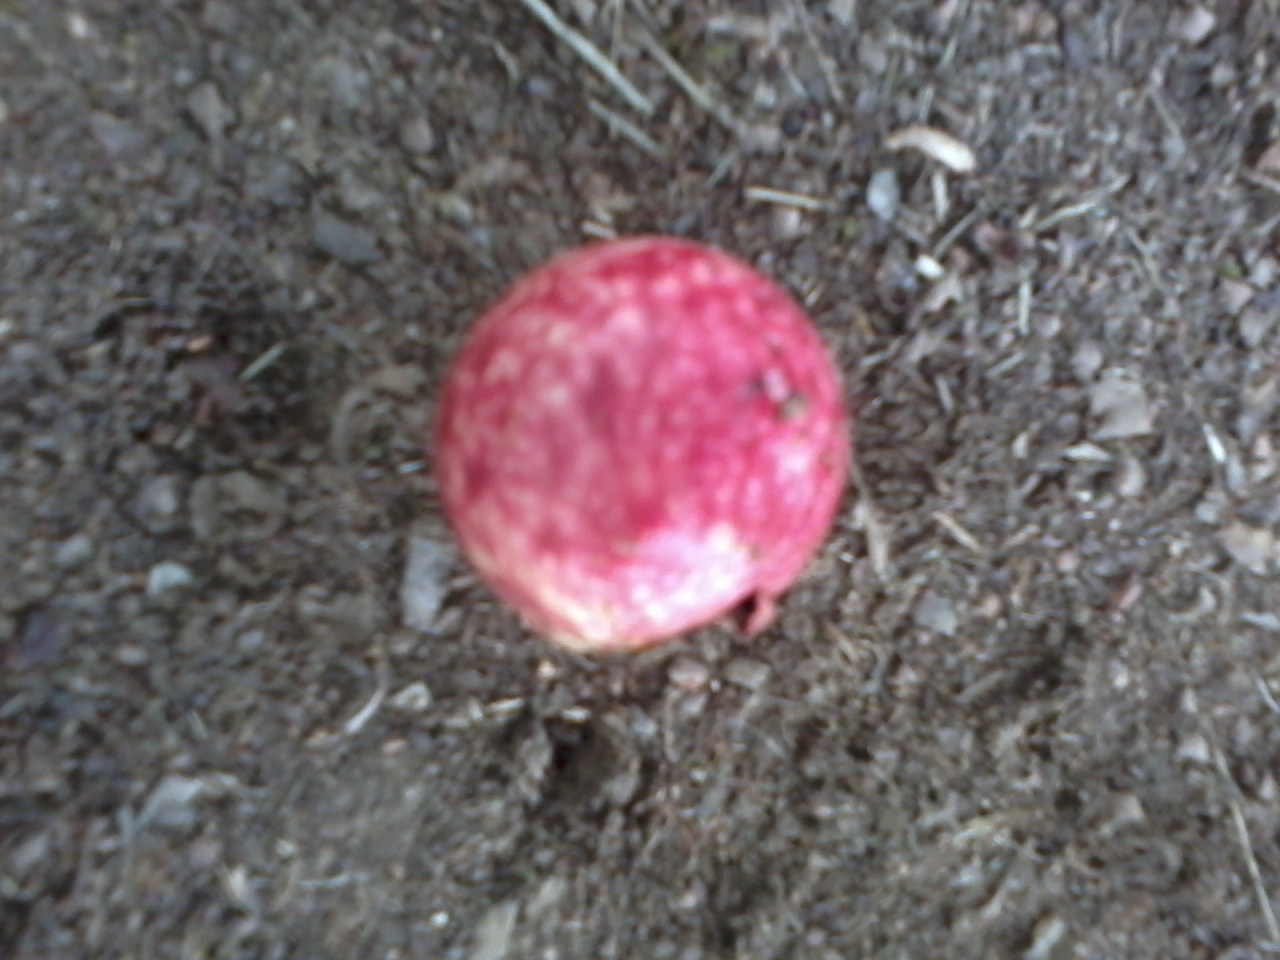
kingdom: Animalia
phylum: Arthropoda
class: Insecta
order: Hymenoptera
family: Cynipidae
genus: Amphibolips
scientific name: Amphibolips
